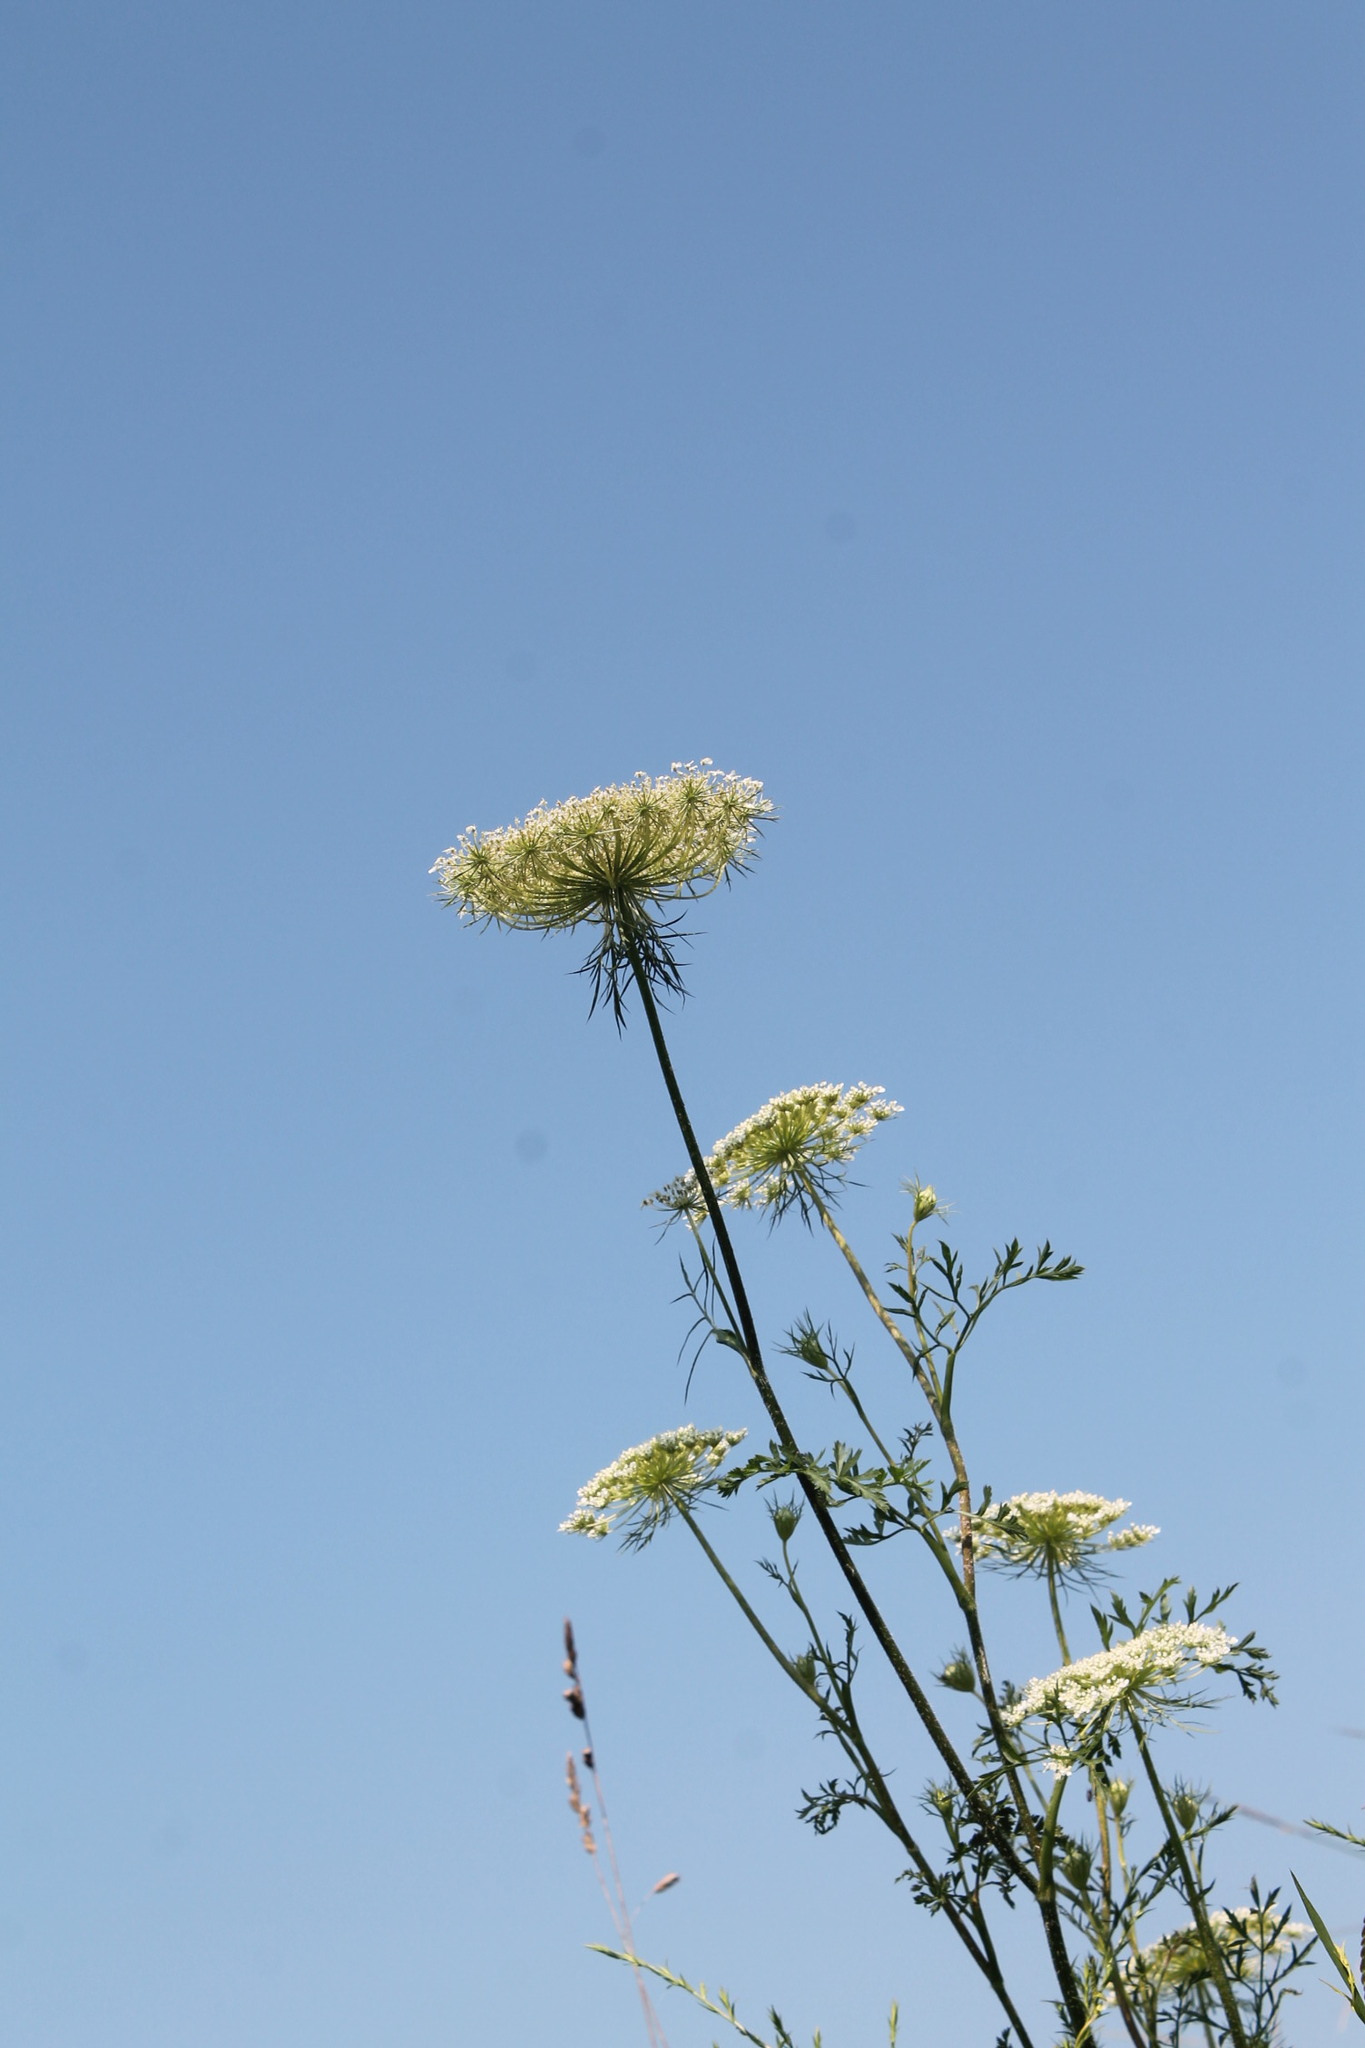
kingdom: Plantae
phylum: Tracheophyta
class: Magnoliopsida
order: Apiales
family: Apiaceae
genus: Daucus
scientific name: Daucus carota
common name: Wild carrot
